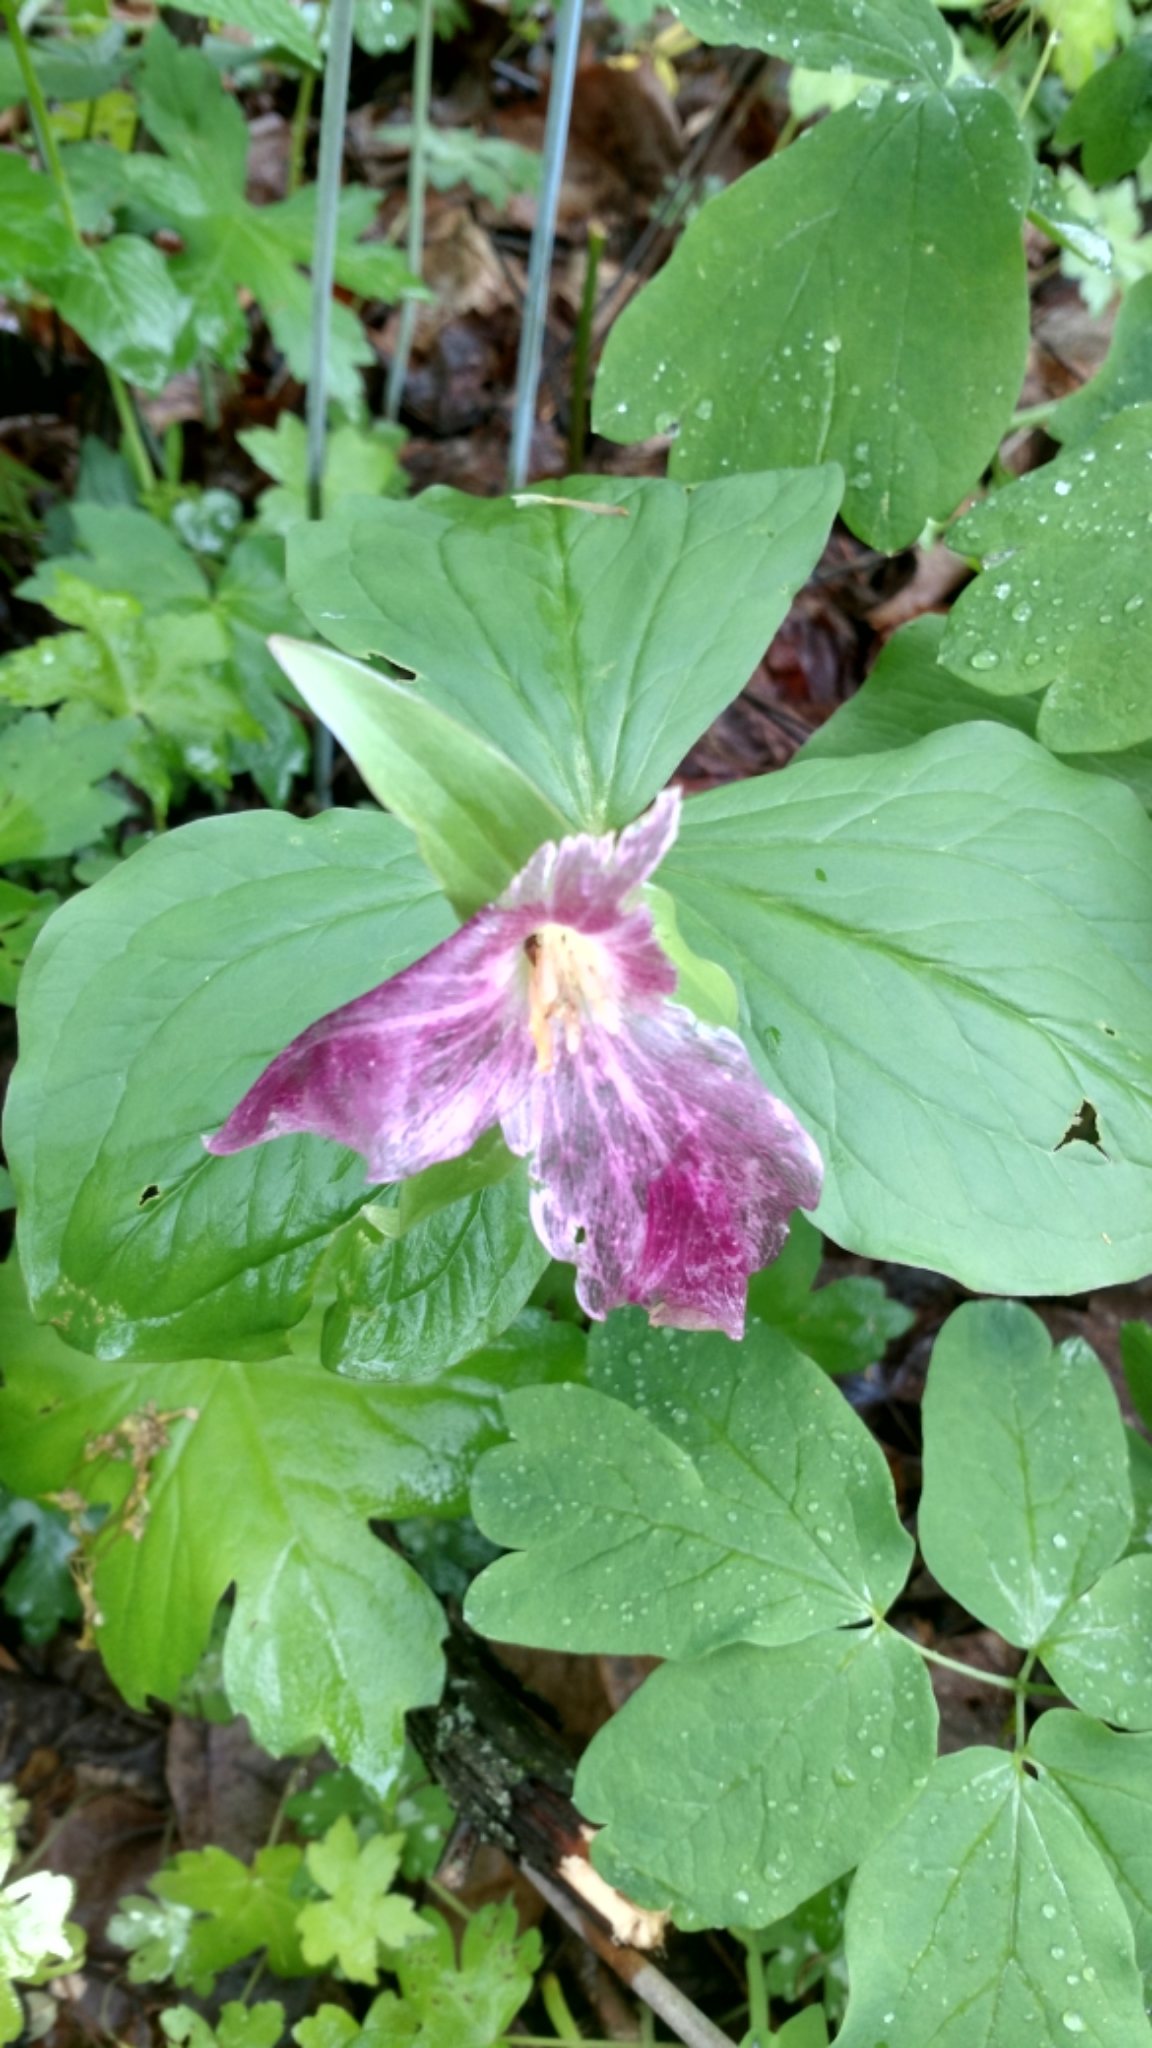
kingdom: Plantae
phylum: Tracheophyta
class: Liliopsida
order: Liliales
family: Melanthiaceae
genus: Trillium
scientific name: Trillium grandiflorum
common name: Great white trillium
